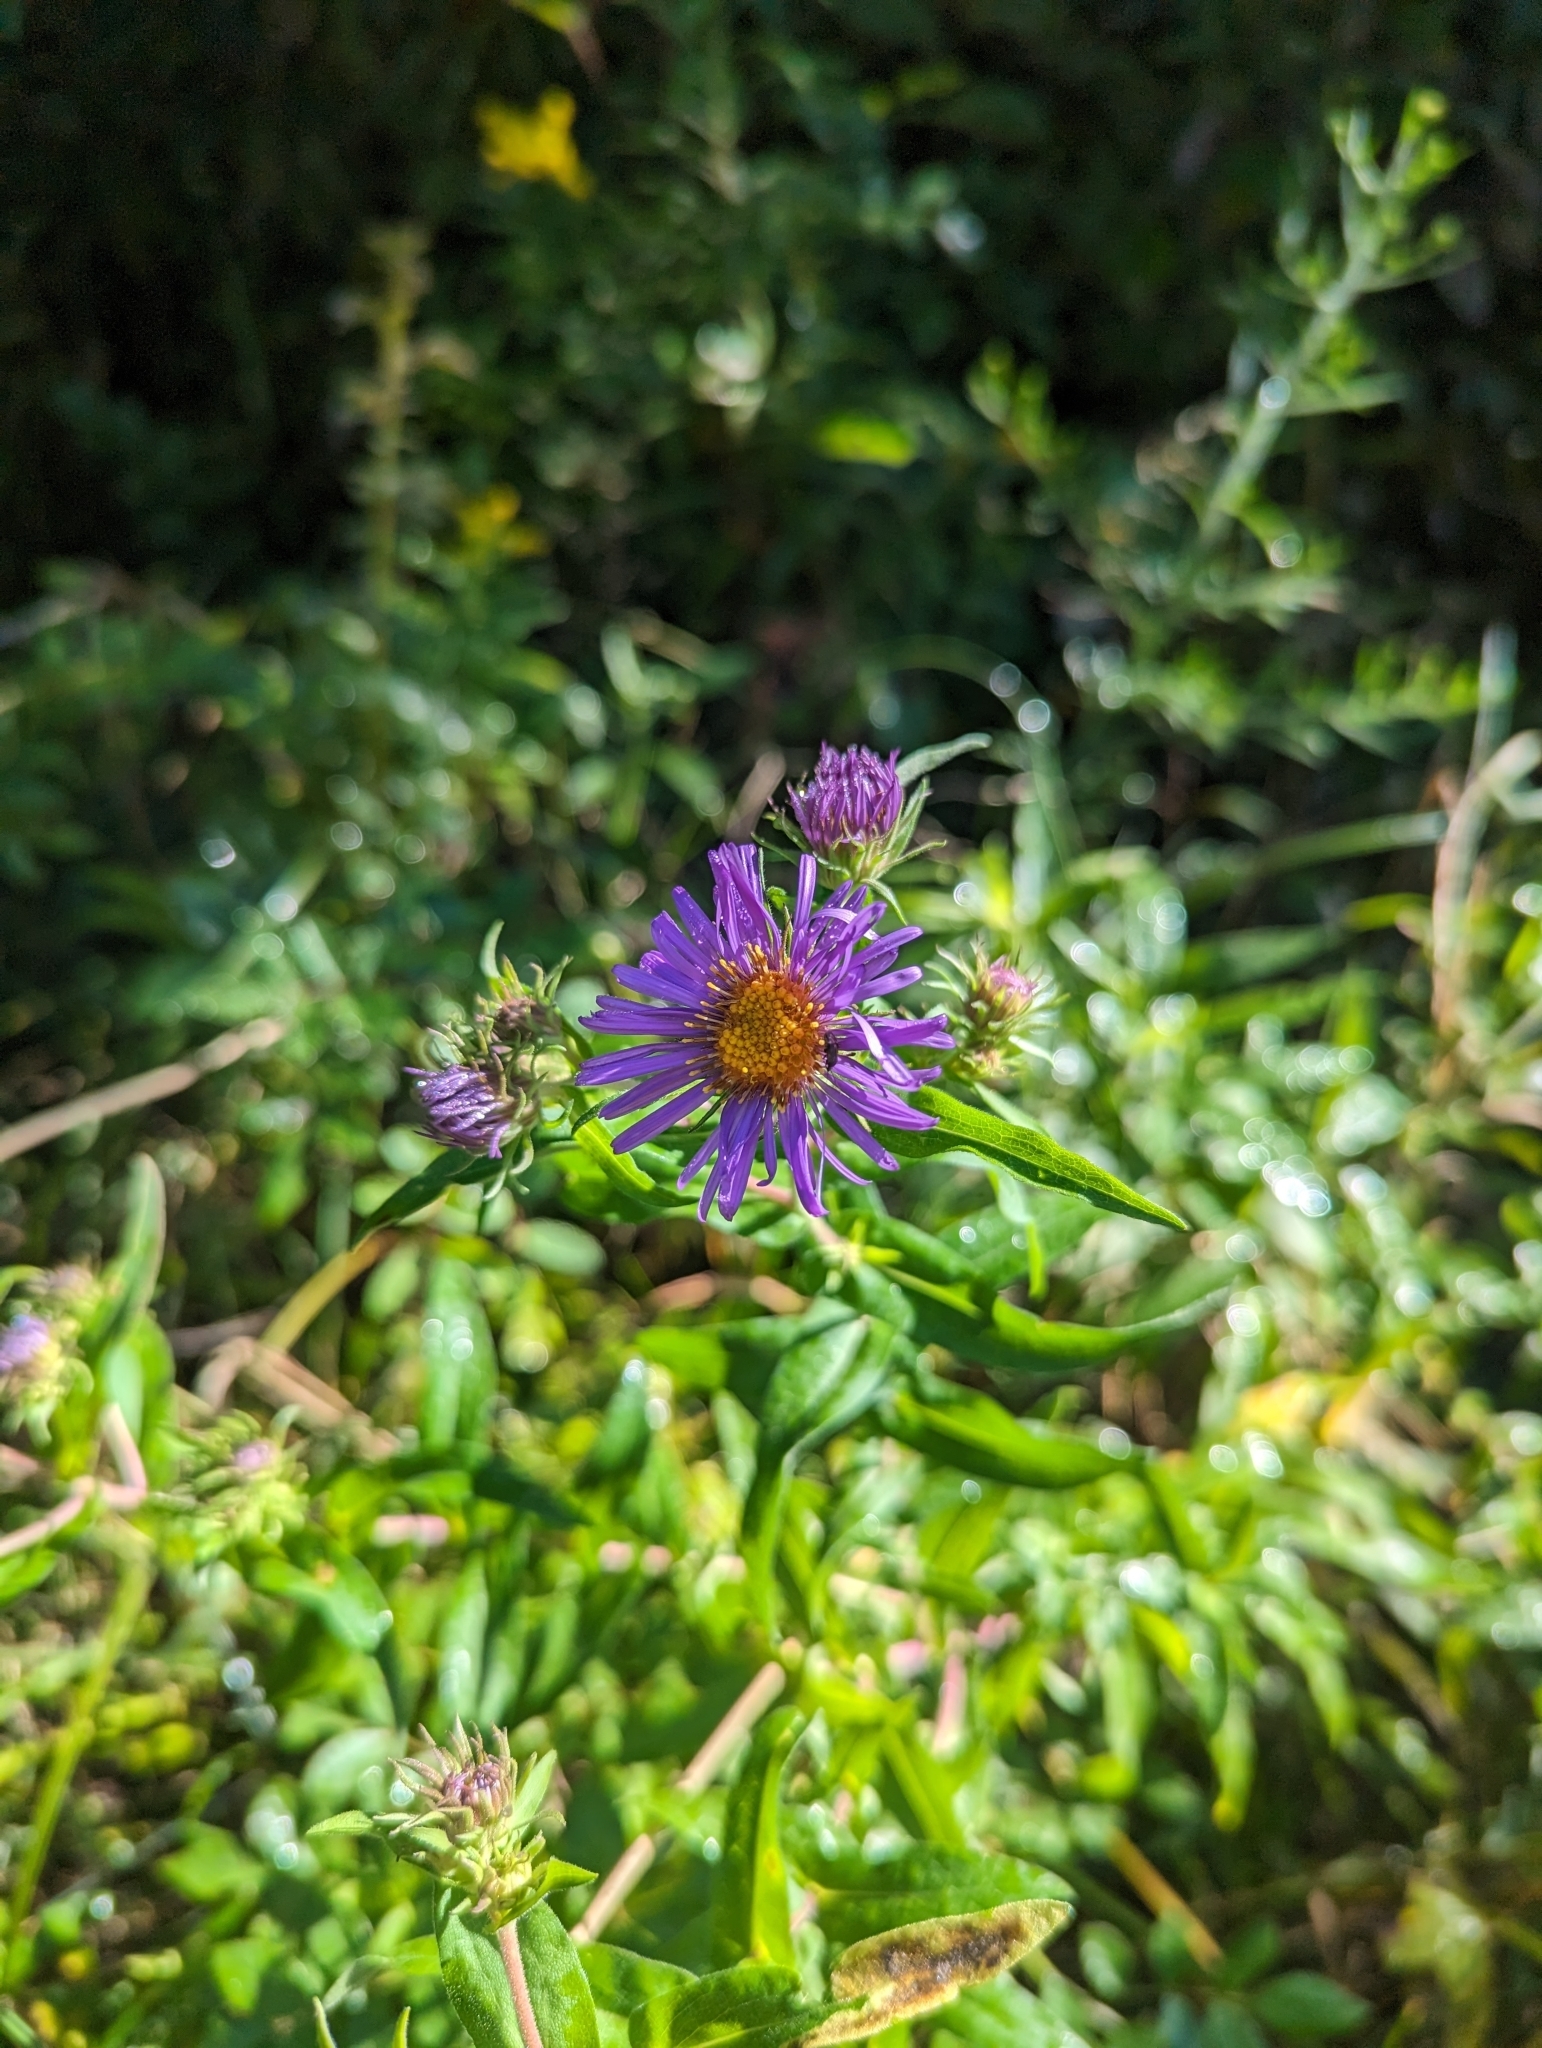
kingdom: Plantae
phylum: Tracheophyta
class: Magnoliopsida
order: Asterales
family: Asteraceae
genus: Symphyotrichum
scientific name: Symphyotrichum novae-angliae
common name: Michaelmas daisy
